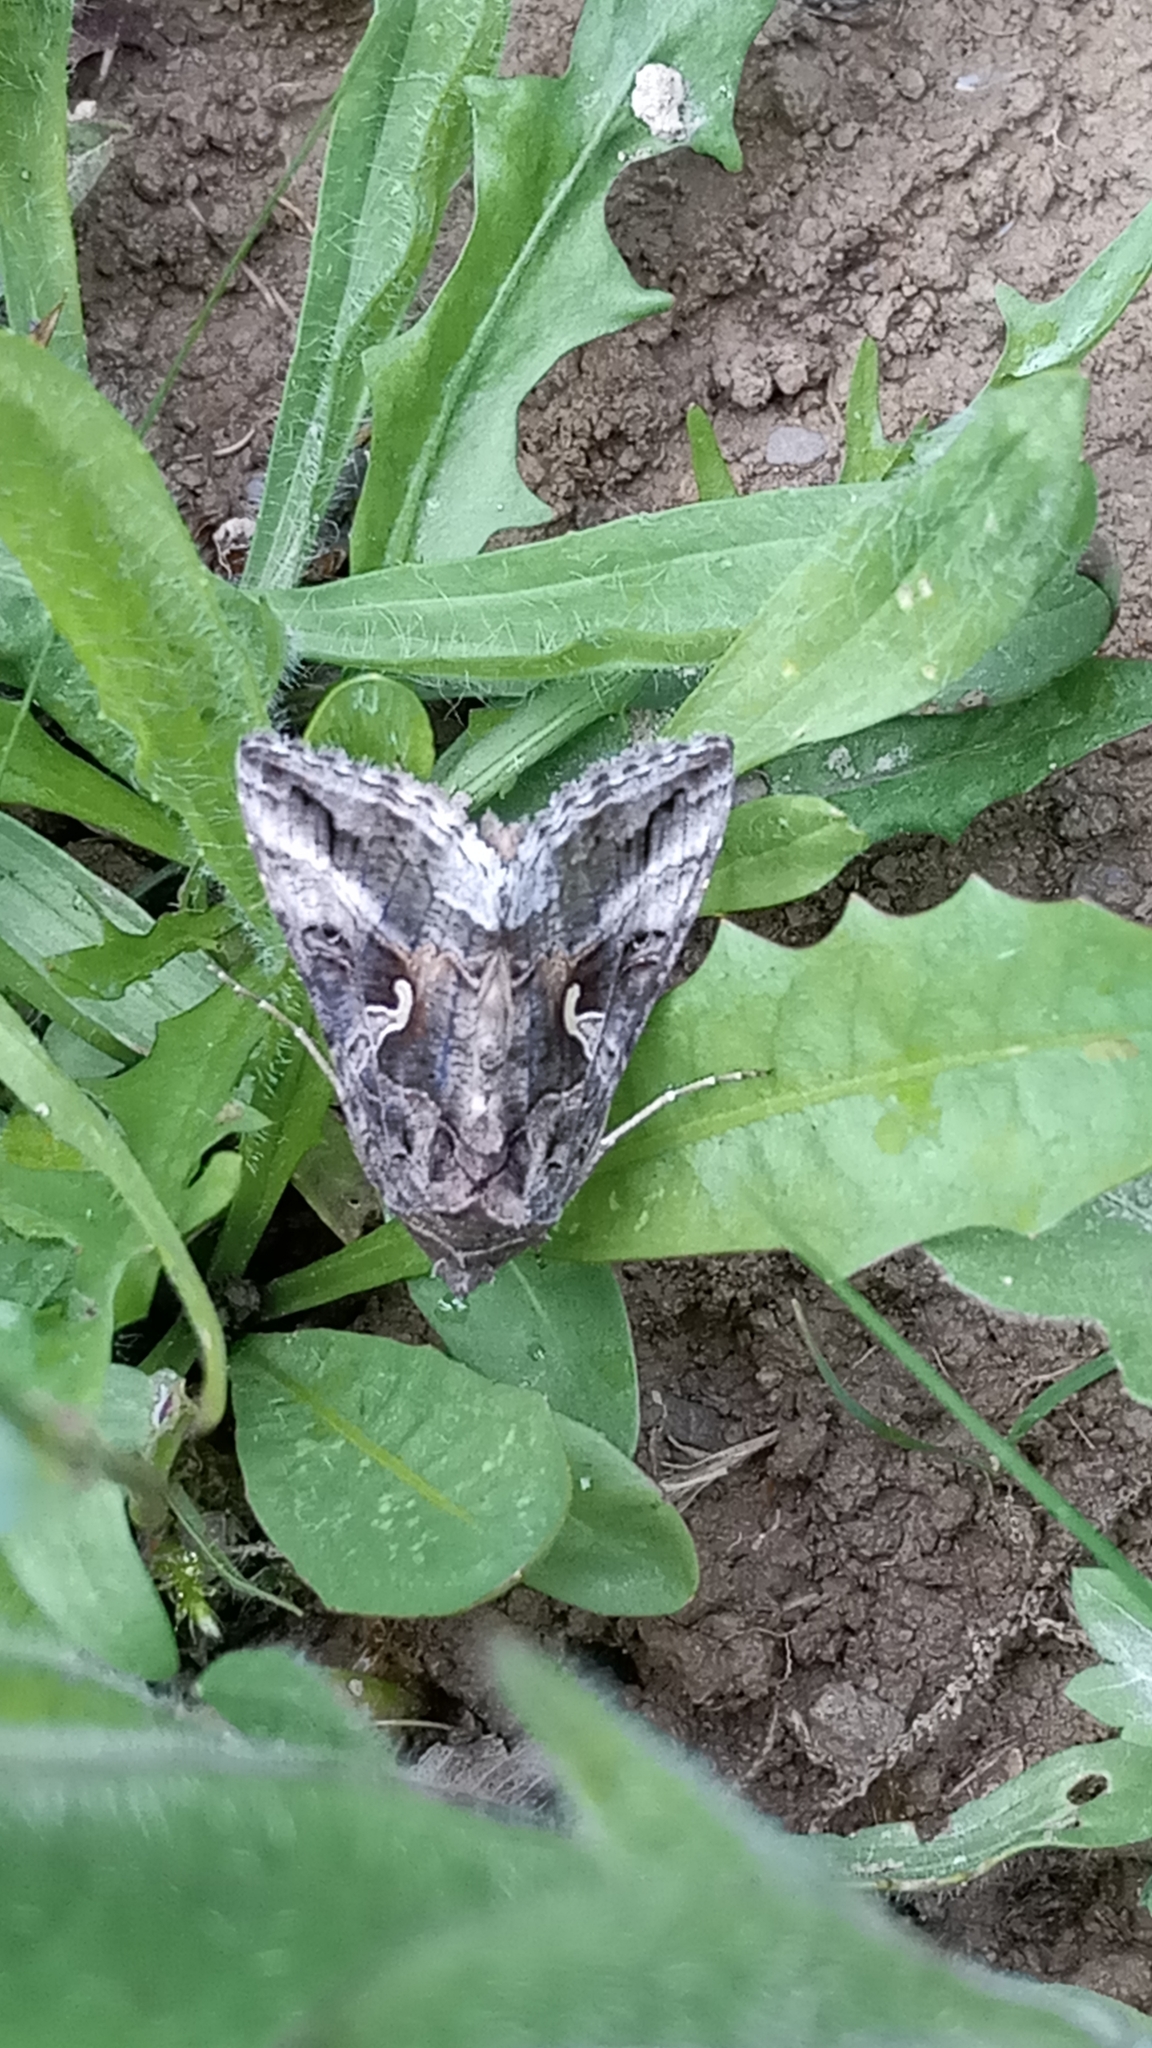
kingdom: Animalia
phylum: Arthropoda
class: Insecta
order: Lepidoptera
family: Noctuidae
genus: Autographa
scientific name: Autographa gamma
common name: Silver y
